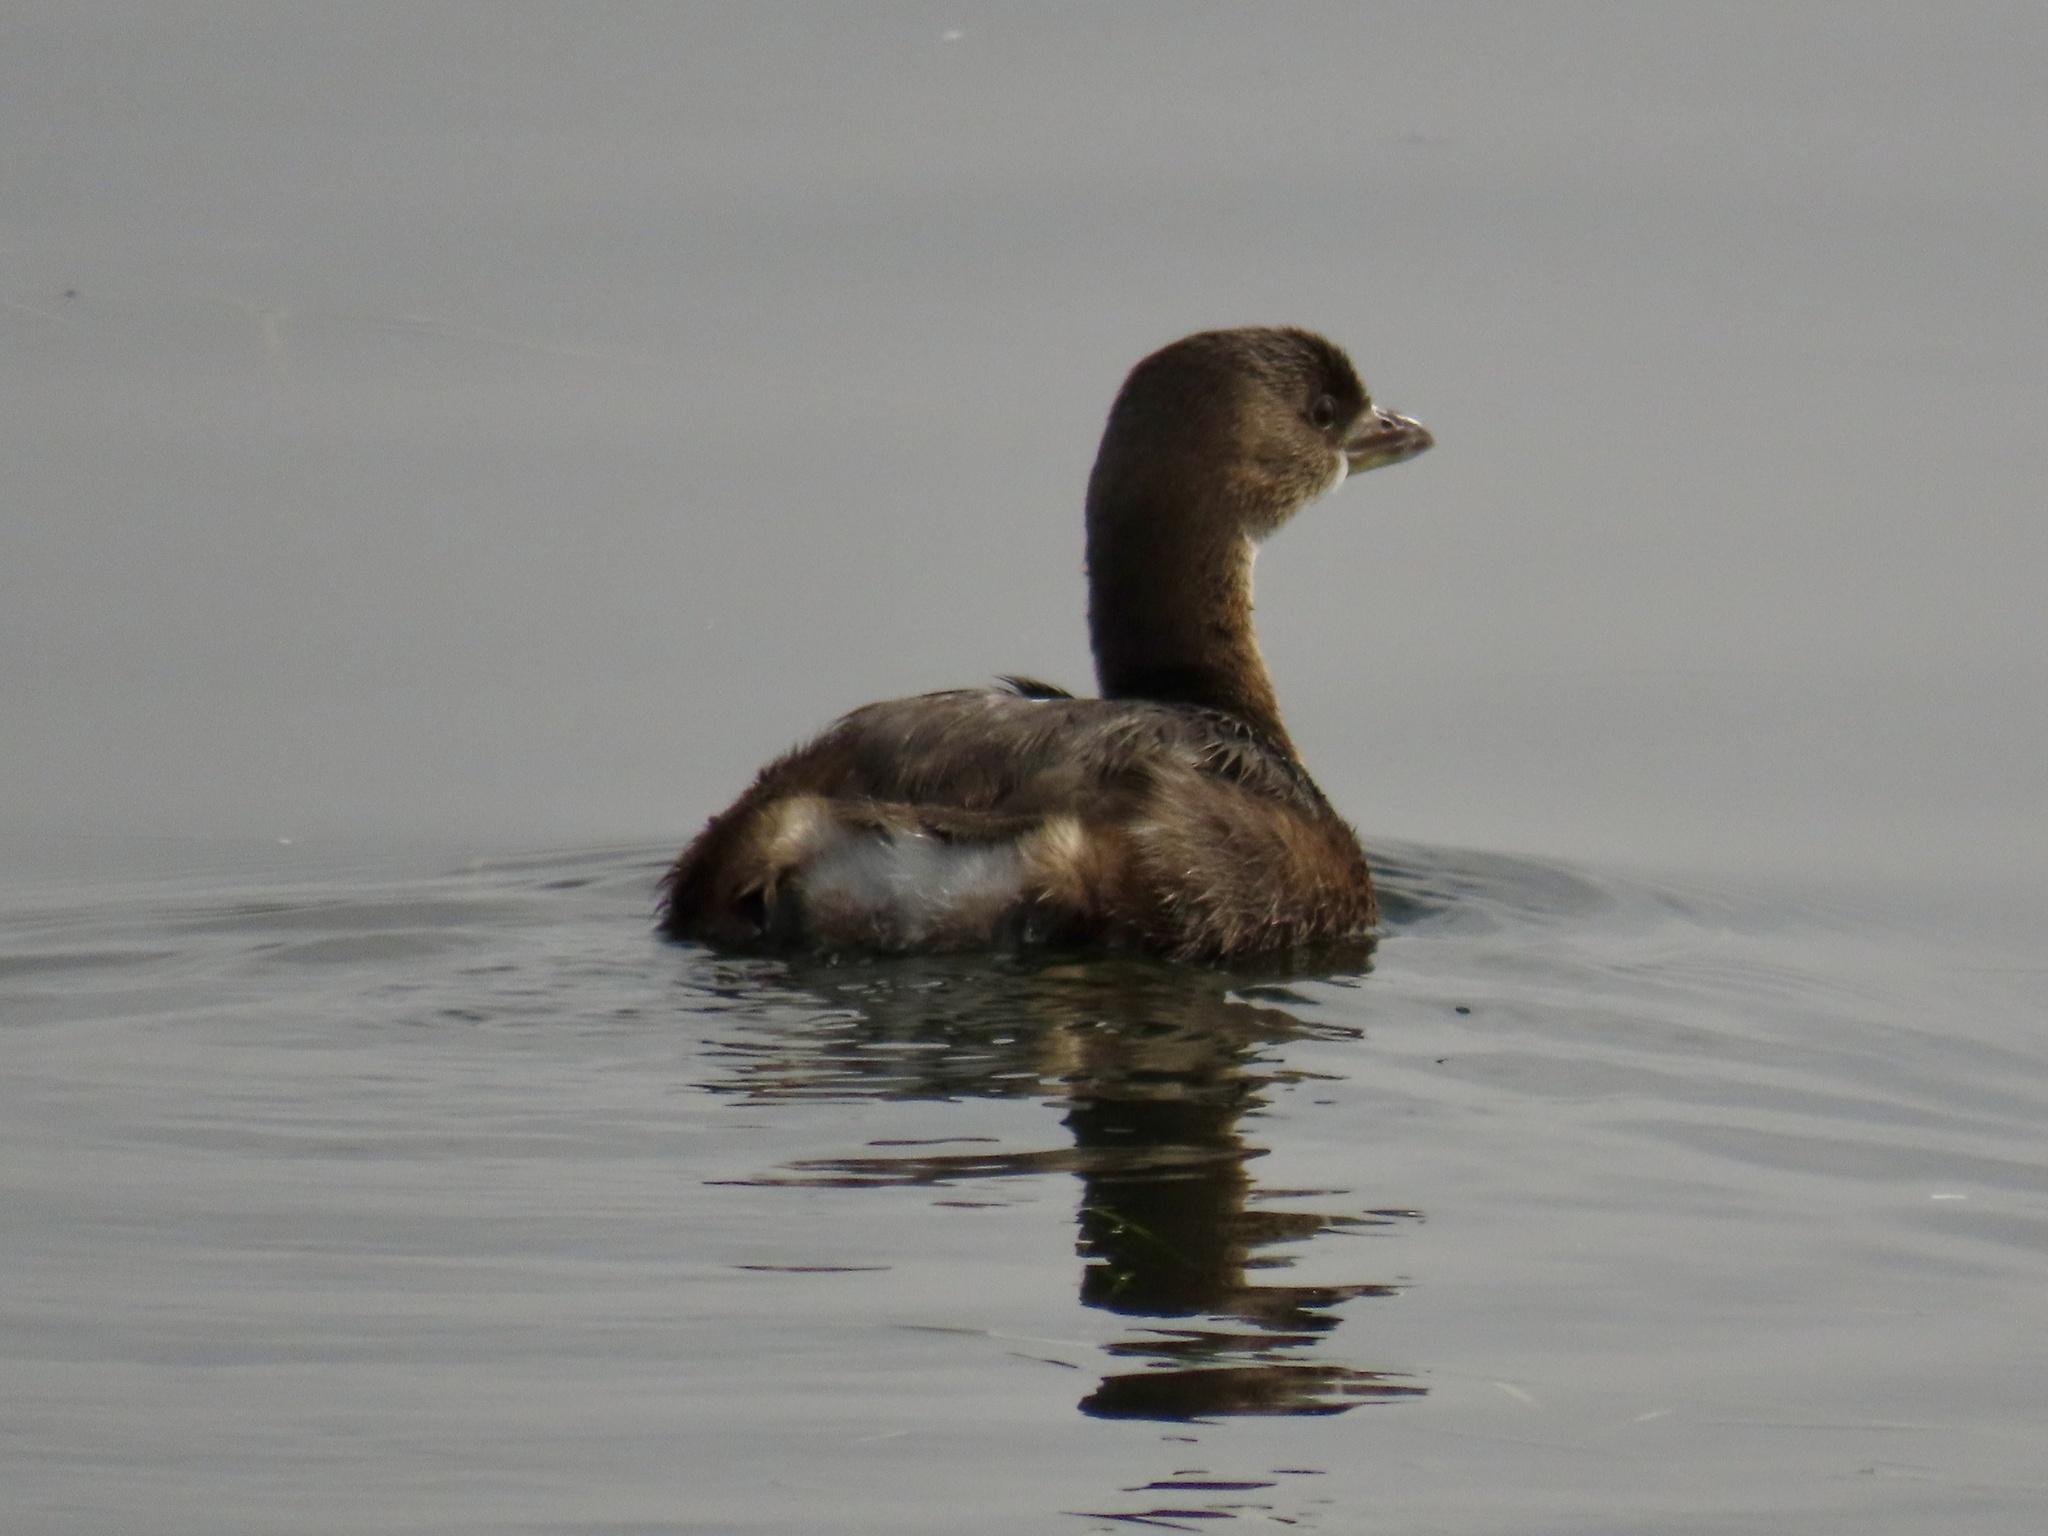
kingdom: Animalia
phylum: Chordata
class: Aves
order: Podicipediformes
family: Podicipedidae
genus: Podilymbus
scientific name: Podilymbus podiceps
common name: Pied-billed grebe
